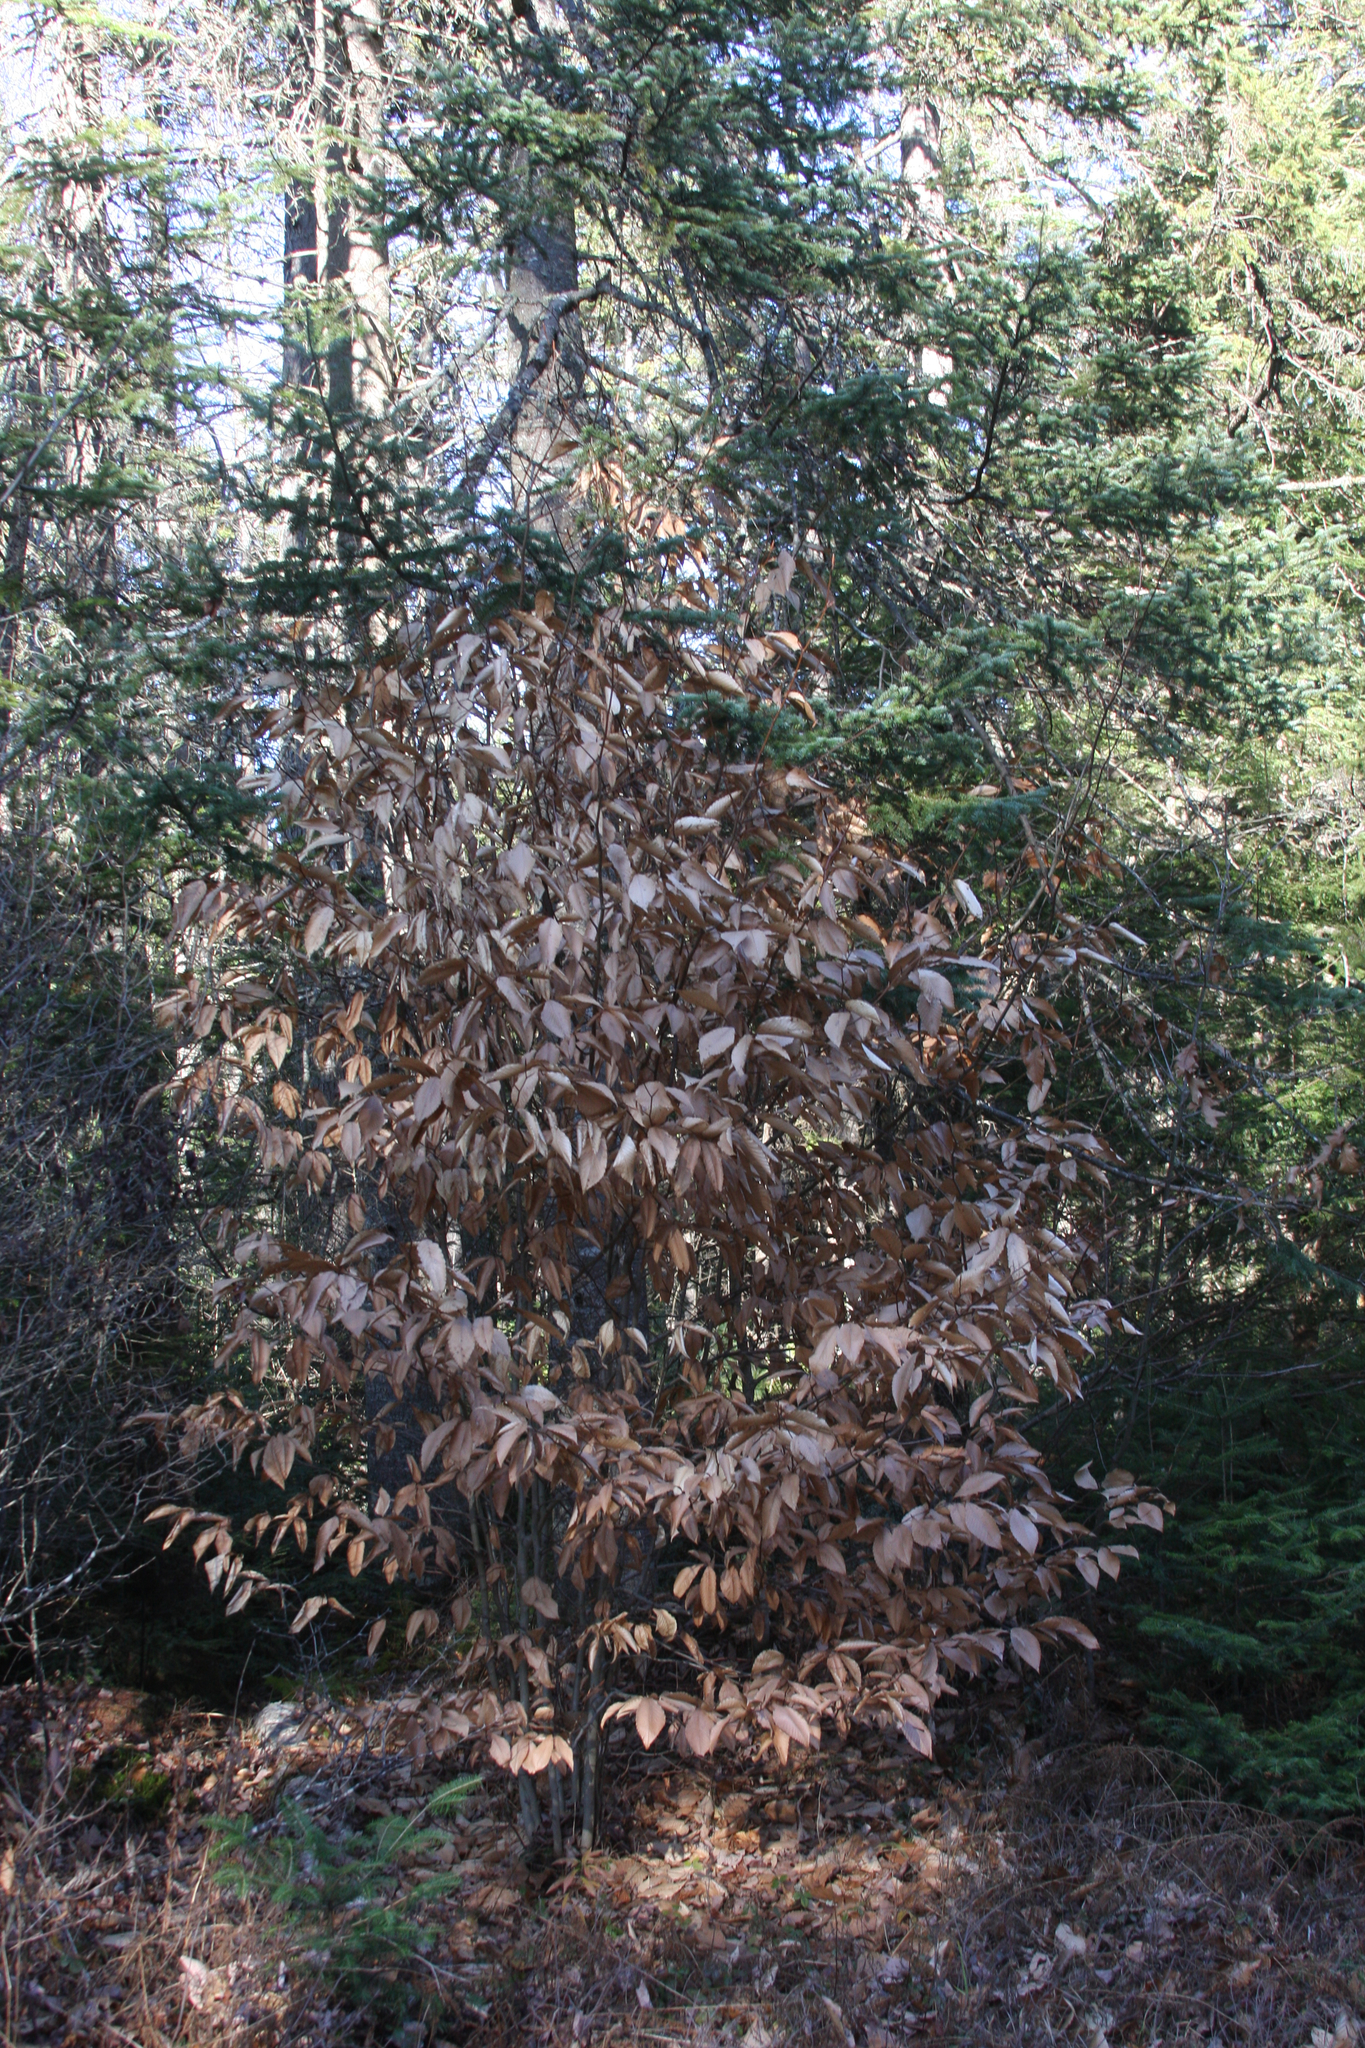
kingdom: Plantae
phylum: Tracheophyta
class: Magnoliopsida
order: Fagales
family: Fagaceae
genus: Fagus
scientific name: Fagus grandifolia
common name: American beech
